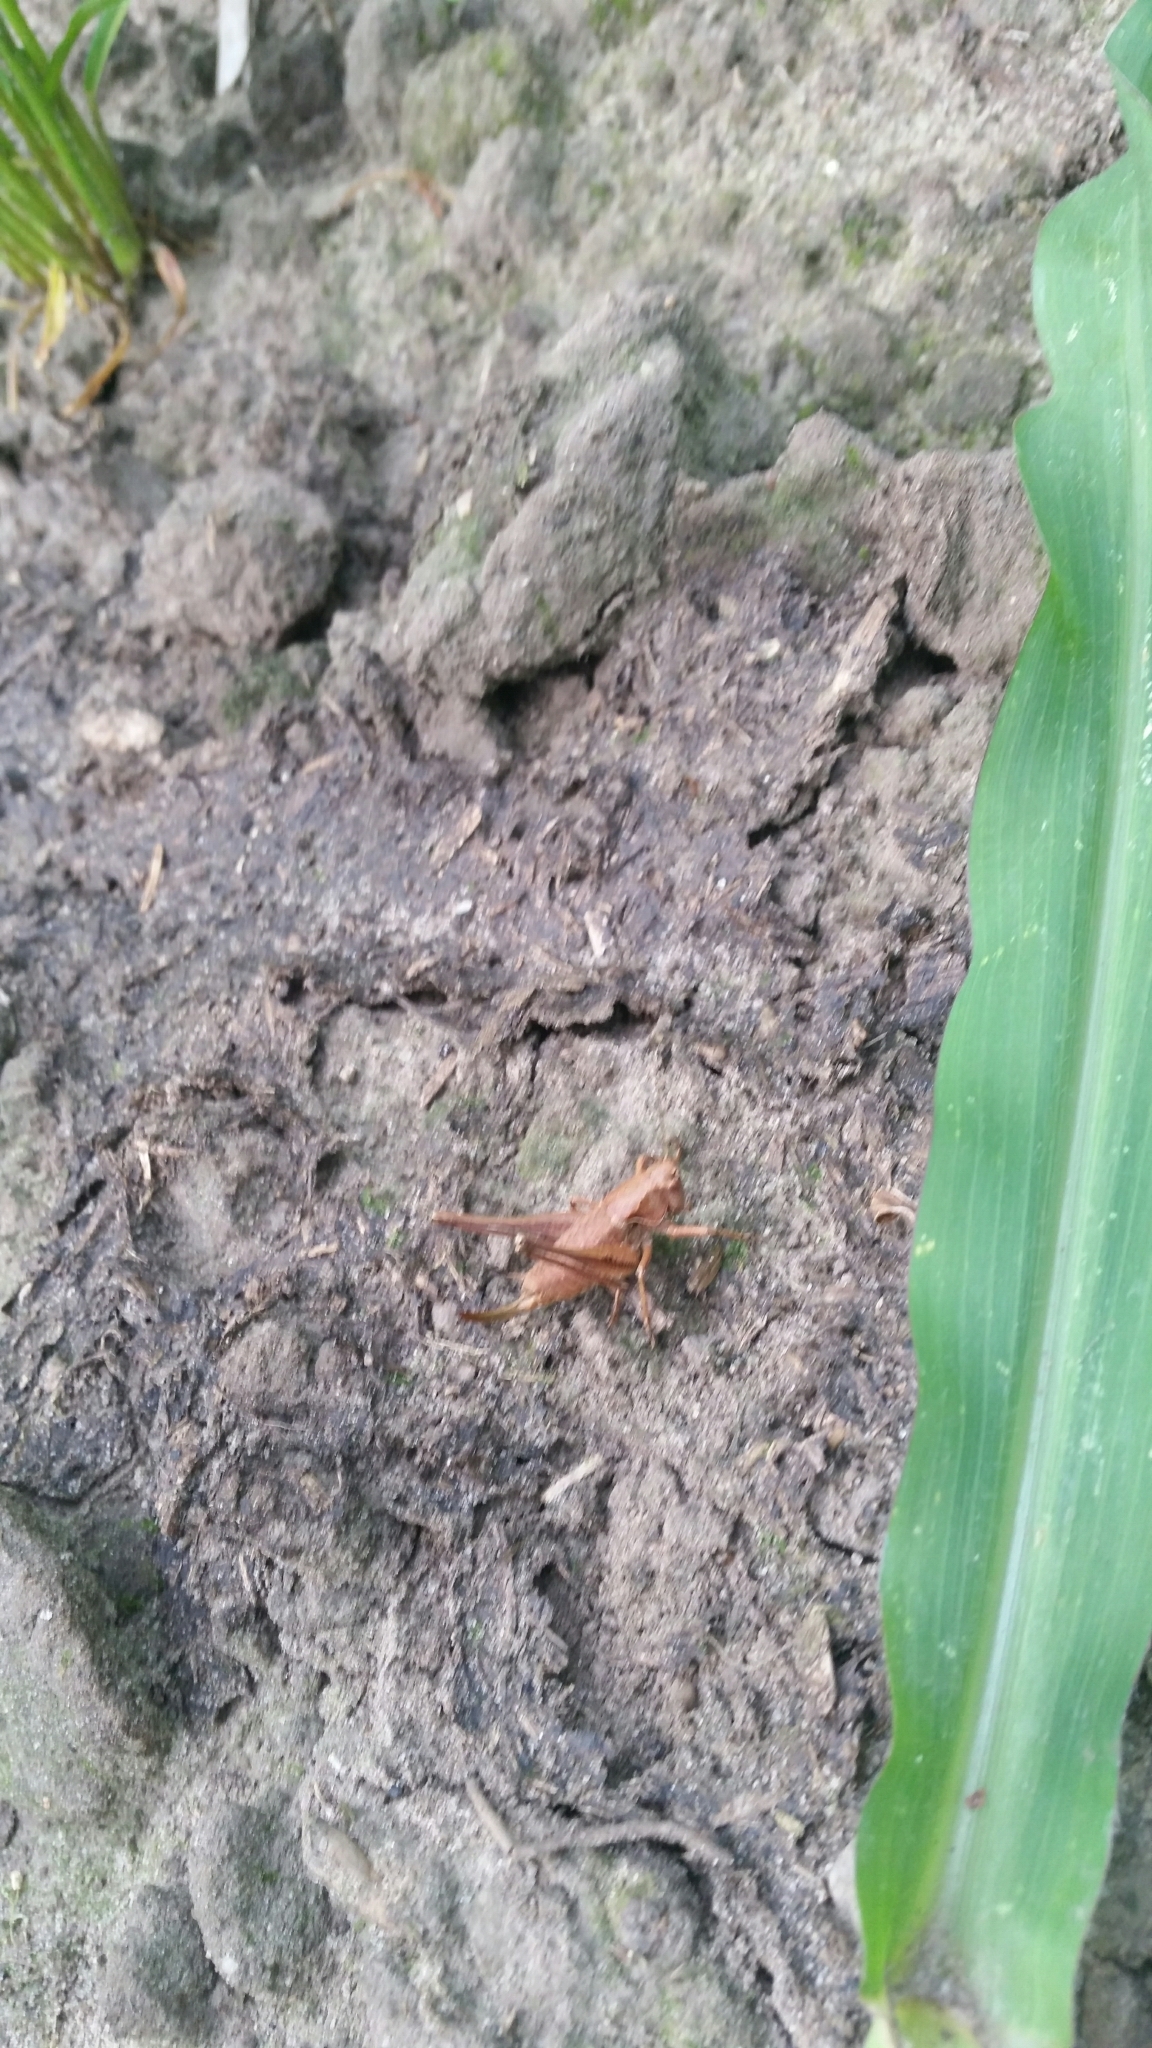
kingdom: Animalia
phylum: Arthropoda
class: Insecta
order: Orthoptera
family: Tettigoniidae
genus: Pholidoptera
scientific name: Pholidoptera griseoaptera
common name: Dark bush-cricket
